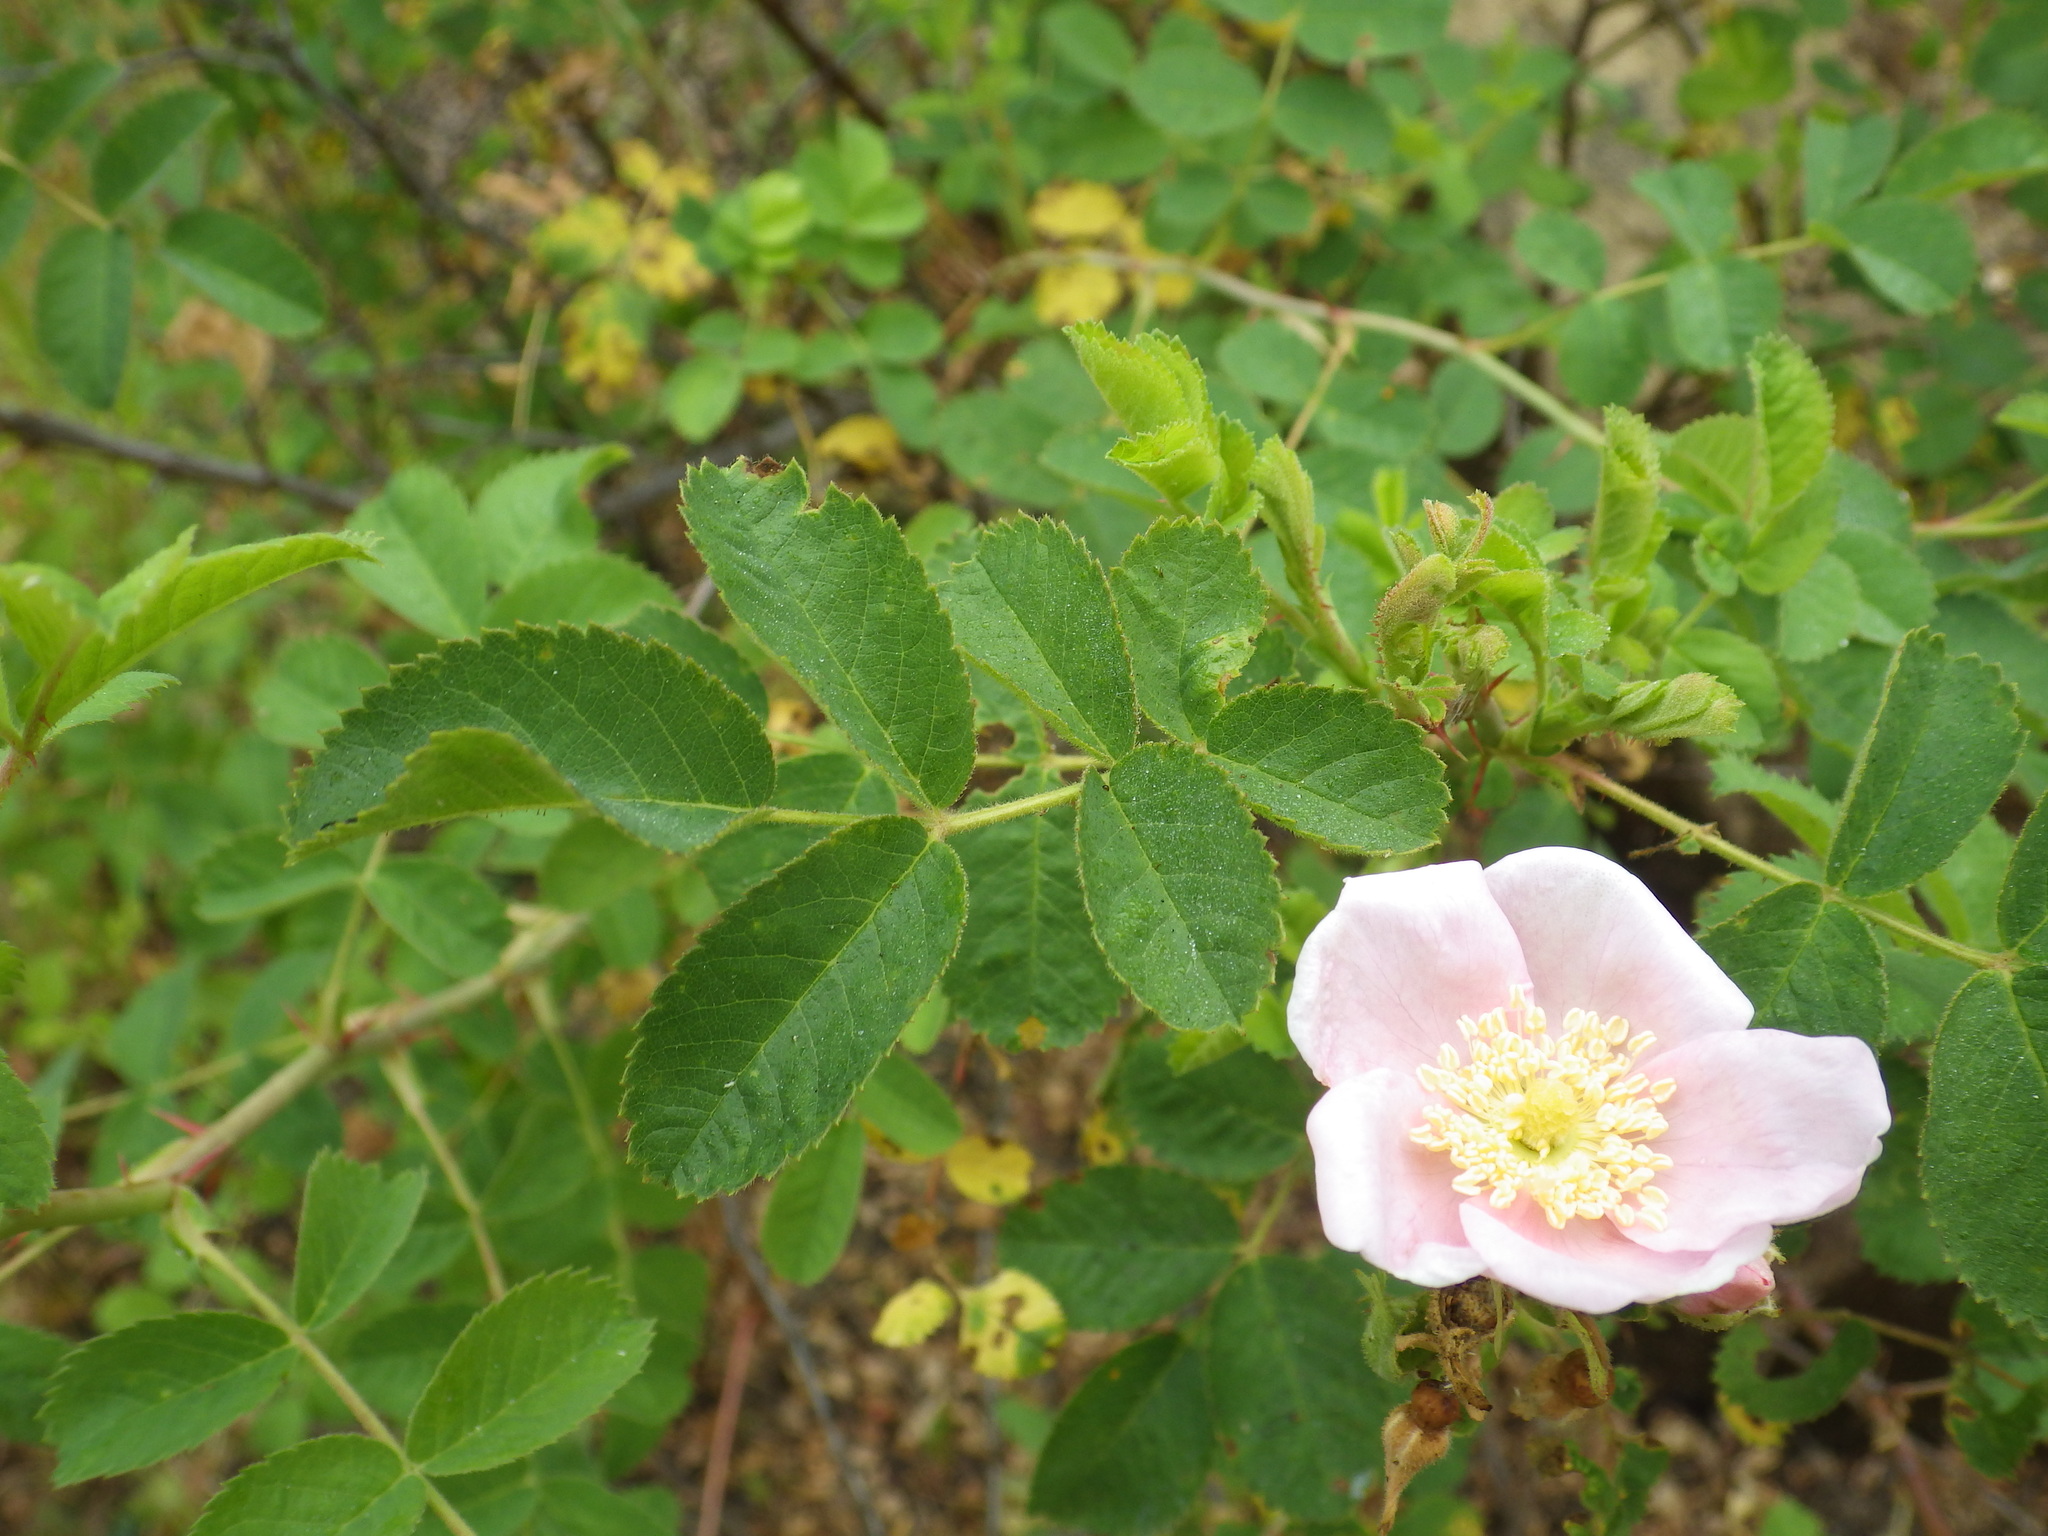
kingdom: Plantae
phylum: Tracheophyta
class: Magnoliopsida
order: Rosales
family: Rosaceae
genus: Rosa
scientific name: Rosa californica
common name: California rose
